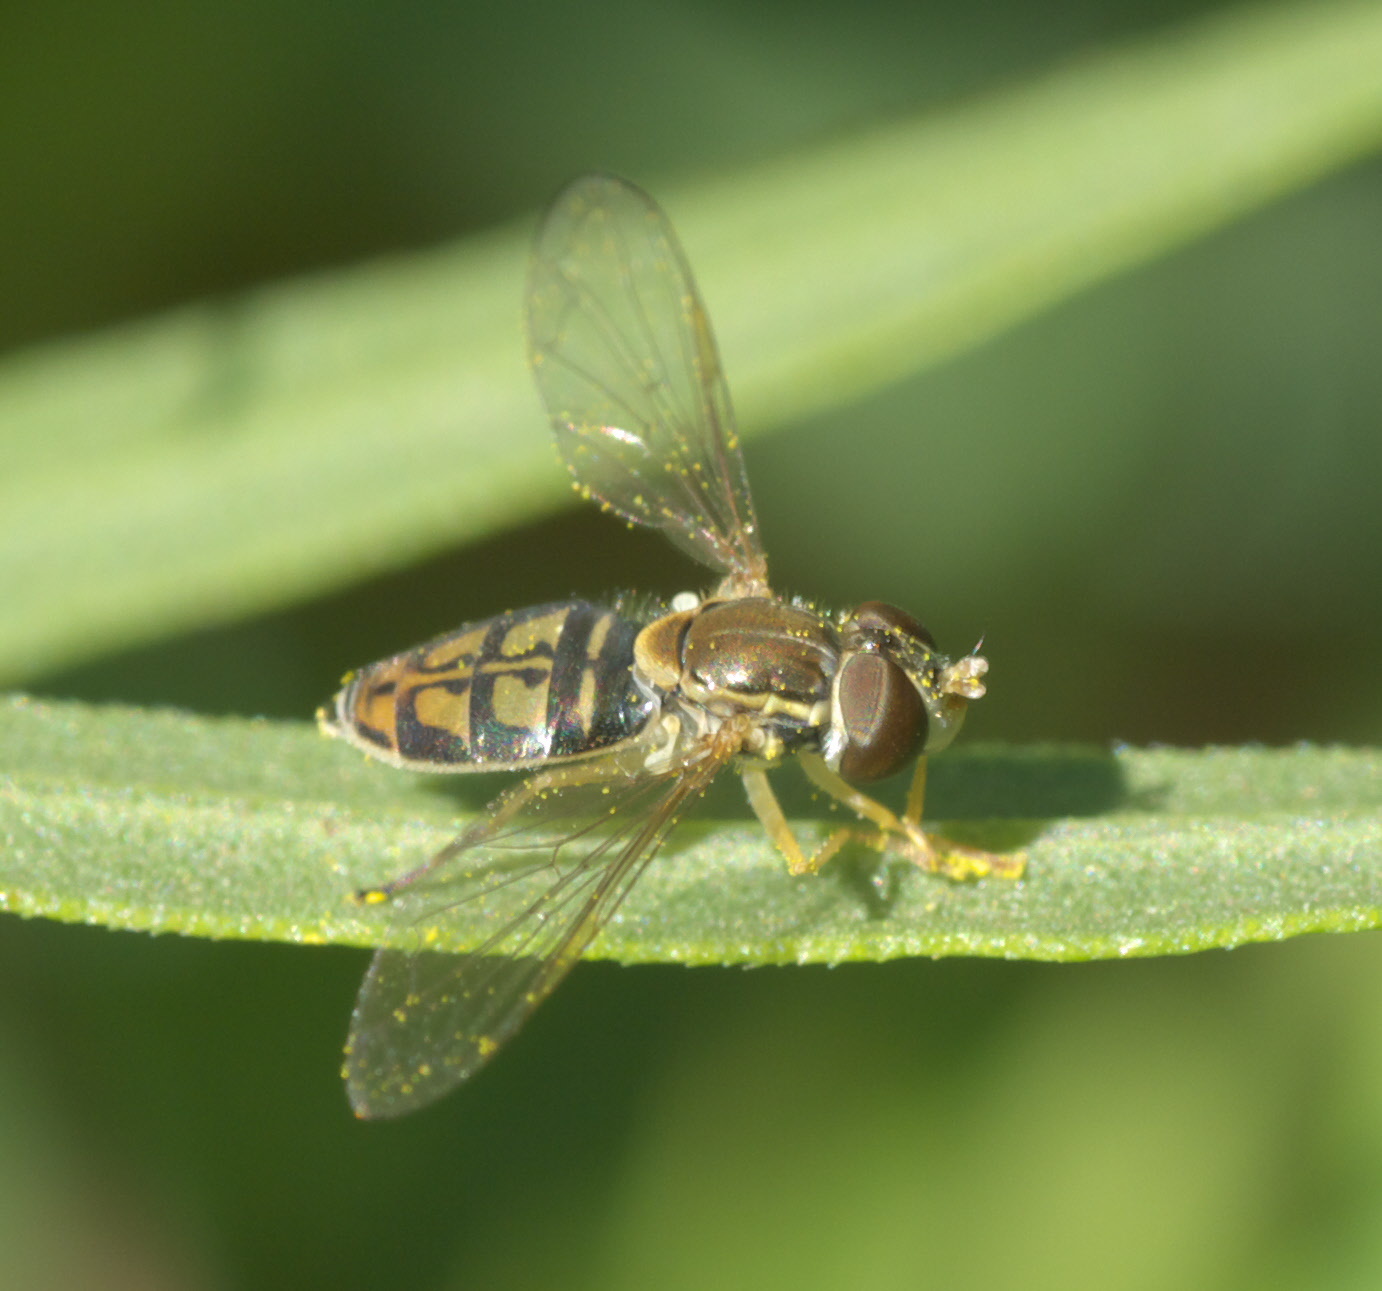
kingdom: Animalia
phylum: Arthropoda
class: Insecta
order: Diptera
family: Syrphidae
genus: Toxomerus
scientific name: Toxomerus marginatus
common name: Syrphid fly
